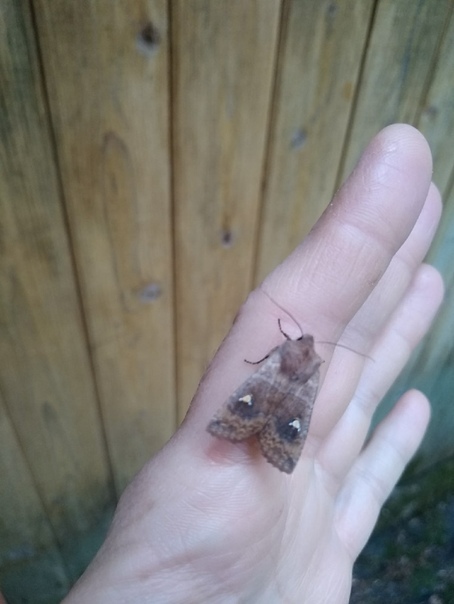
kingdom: Animalia
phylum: Arthropoda
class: Insecta
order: Lepidoptera
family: Noctuidae
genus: Eupsilia
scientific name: Eupsilia transversa
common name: Satellite
